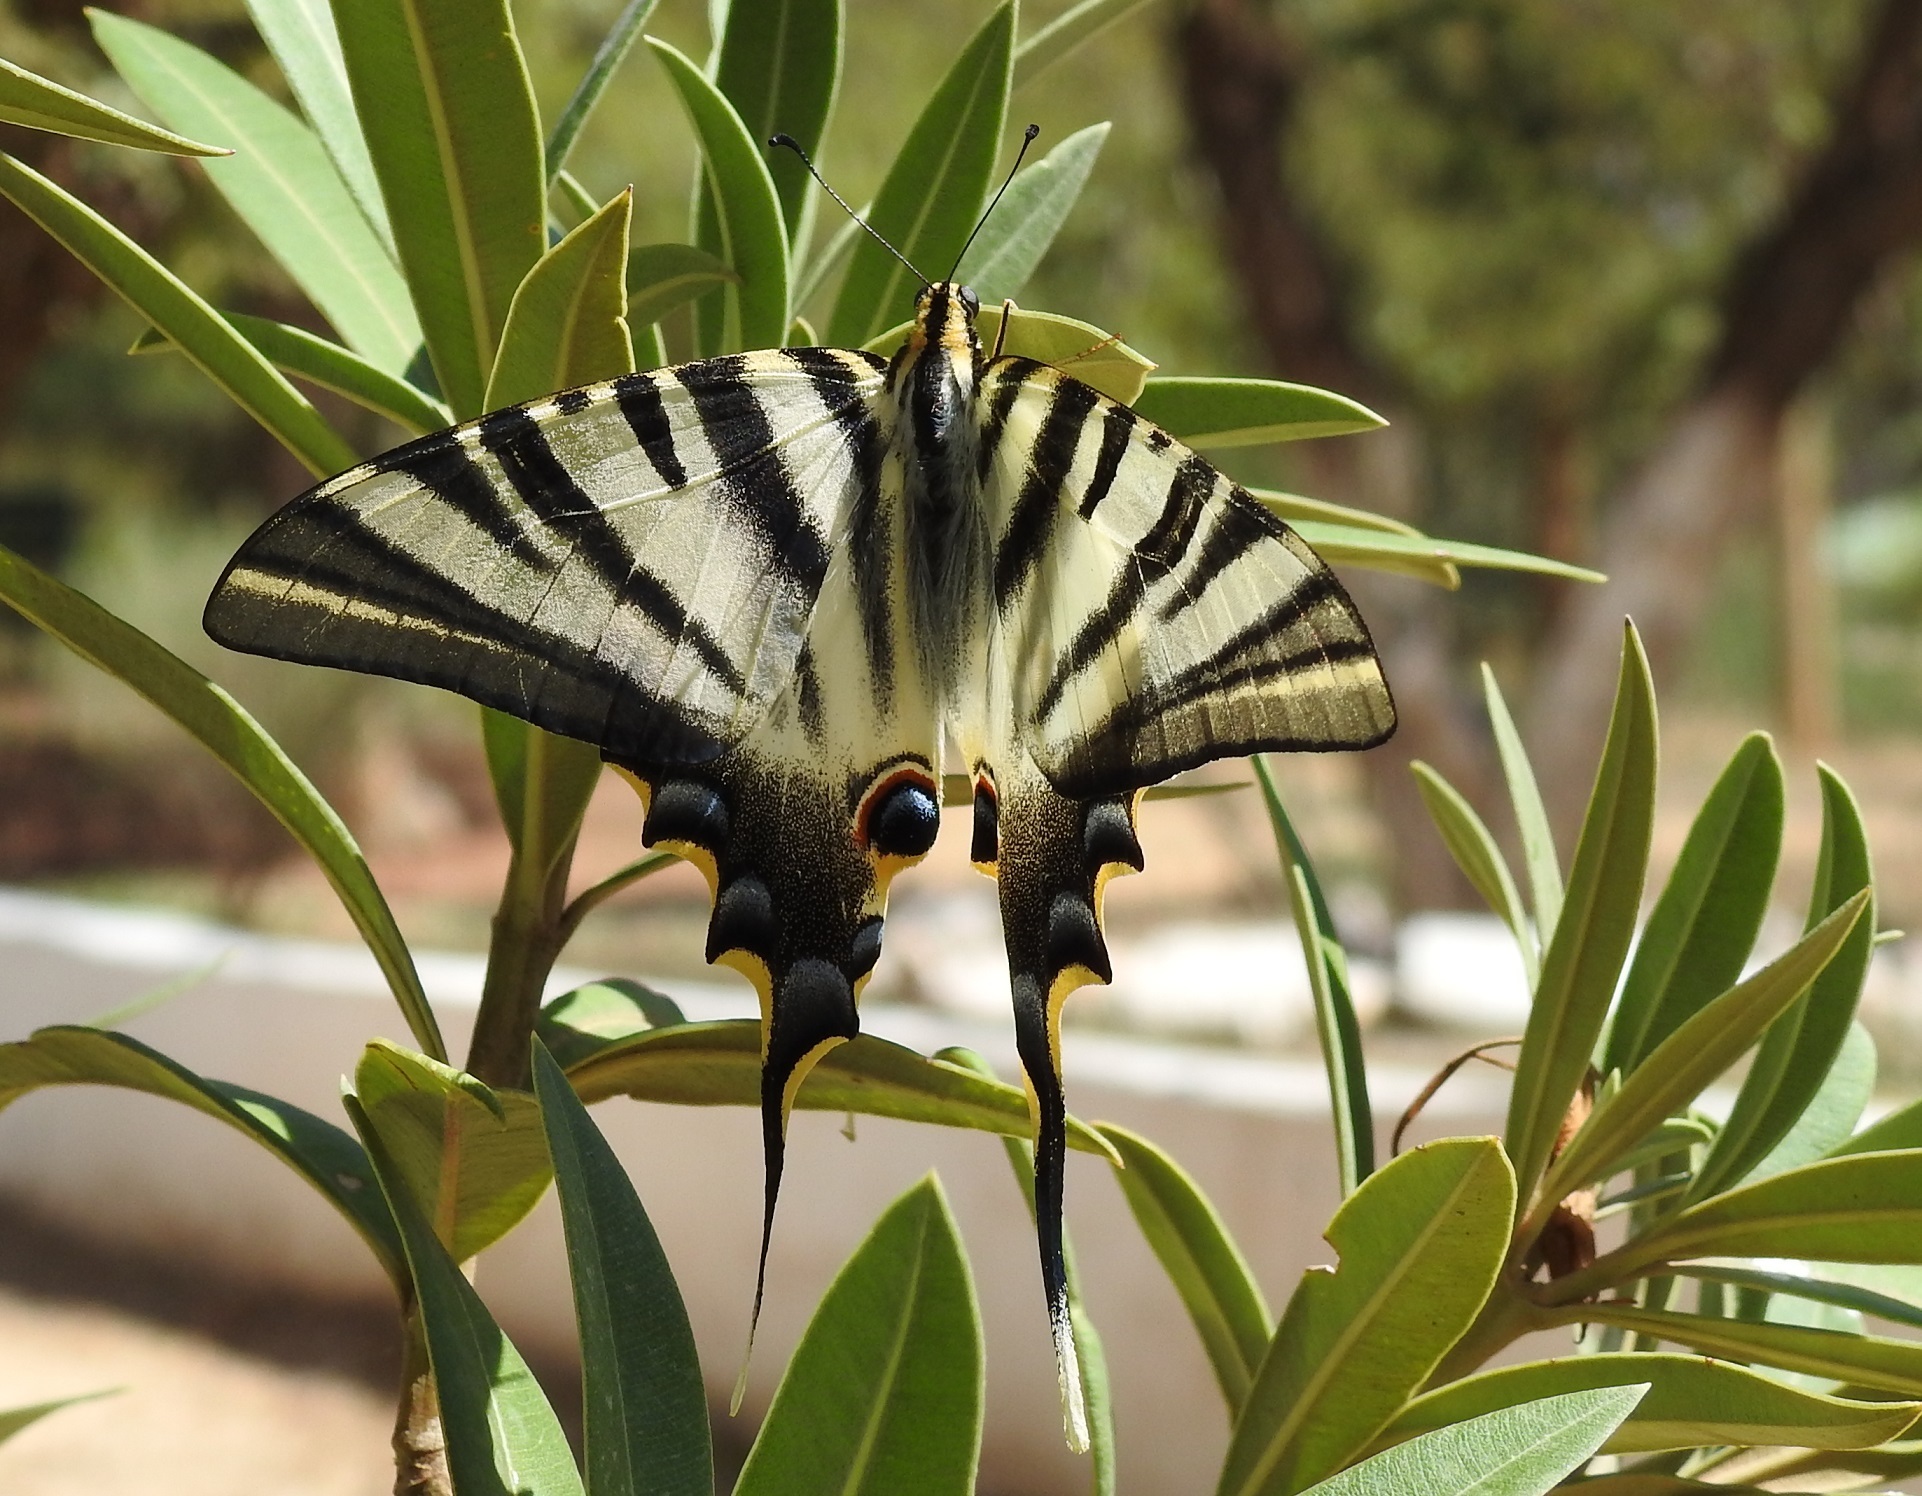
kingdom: Animalia
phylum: Arthropoda
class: Insecta
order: Lepidoptera
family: Papilionidae
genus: Iphiclides
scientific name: Iphiclides feisthamelii
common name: Iberian scarce swallowtail
